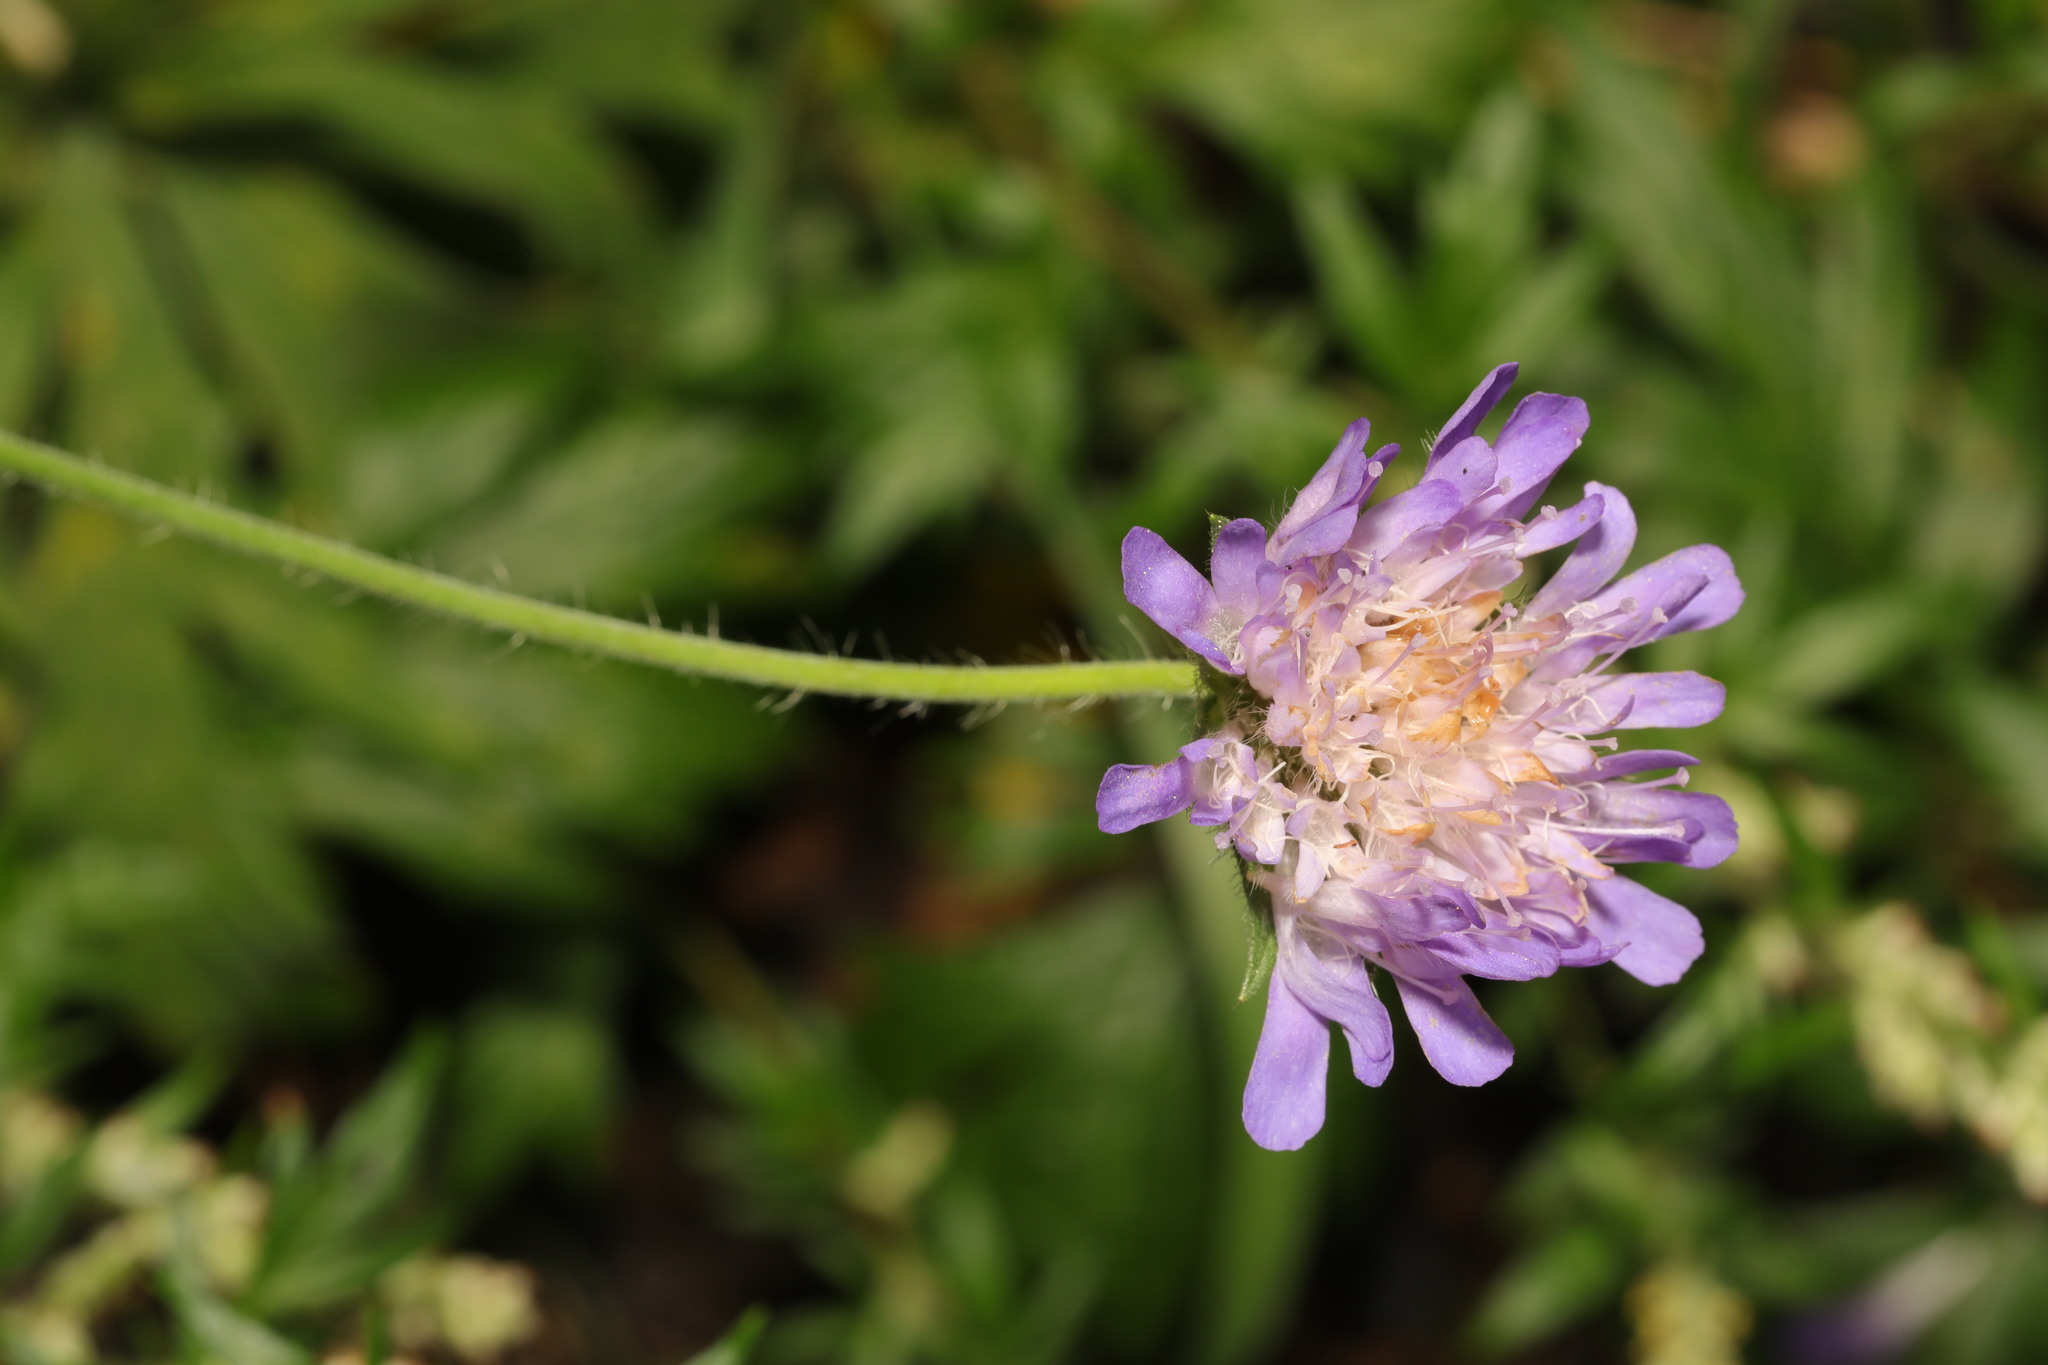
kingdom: Plantae
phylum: Tracheophyta
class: Magnoliopsida
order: Dipsacales
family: Caprifoliaceae
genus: Knautia
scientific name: Knautia arvensis
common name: Field scabiosa
